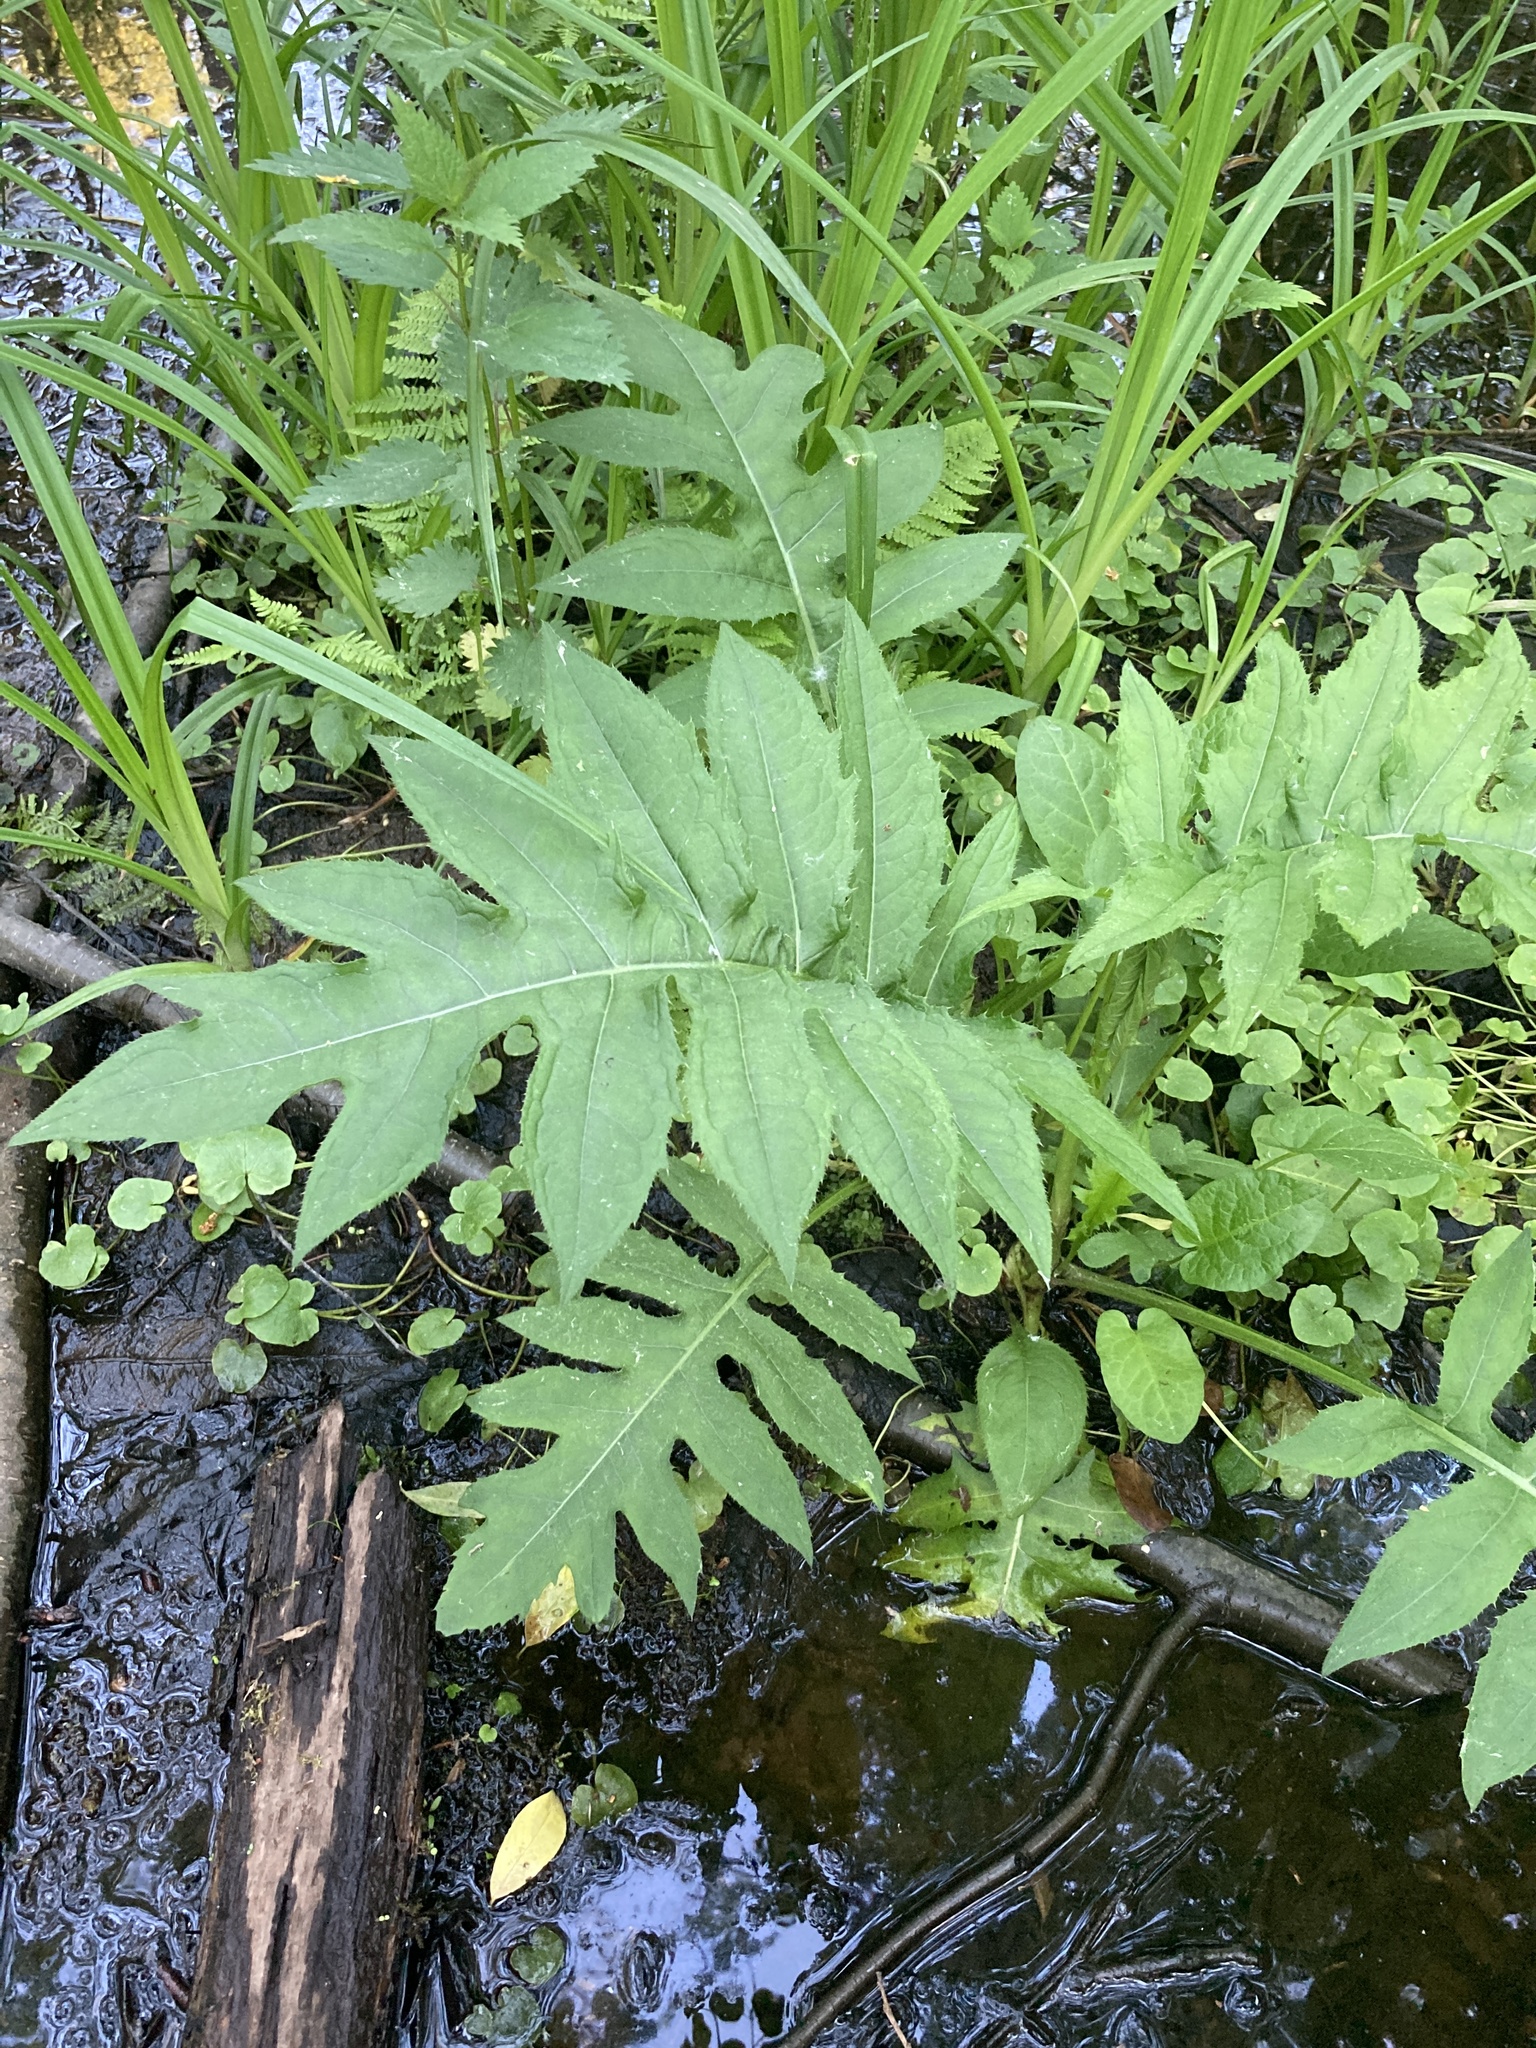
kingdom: Plantae
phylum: Tracheophyta
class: Magnoliopsida
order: Asterales
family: Asteraceae
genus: Cirsium
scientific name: Cirsium oleraceum
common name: Cabbage thistle
